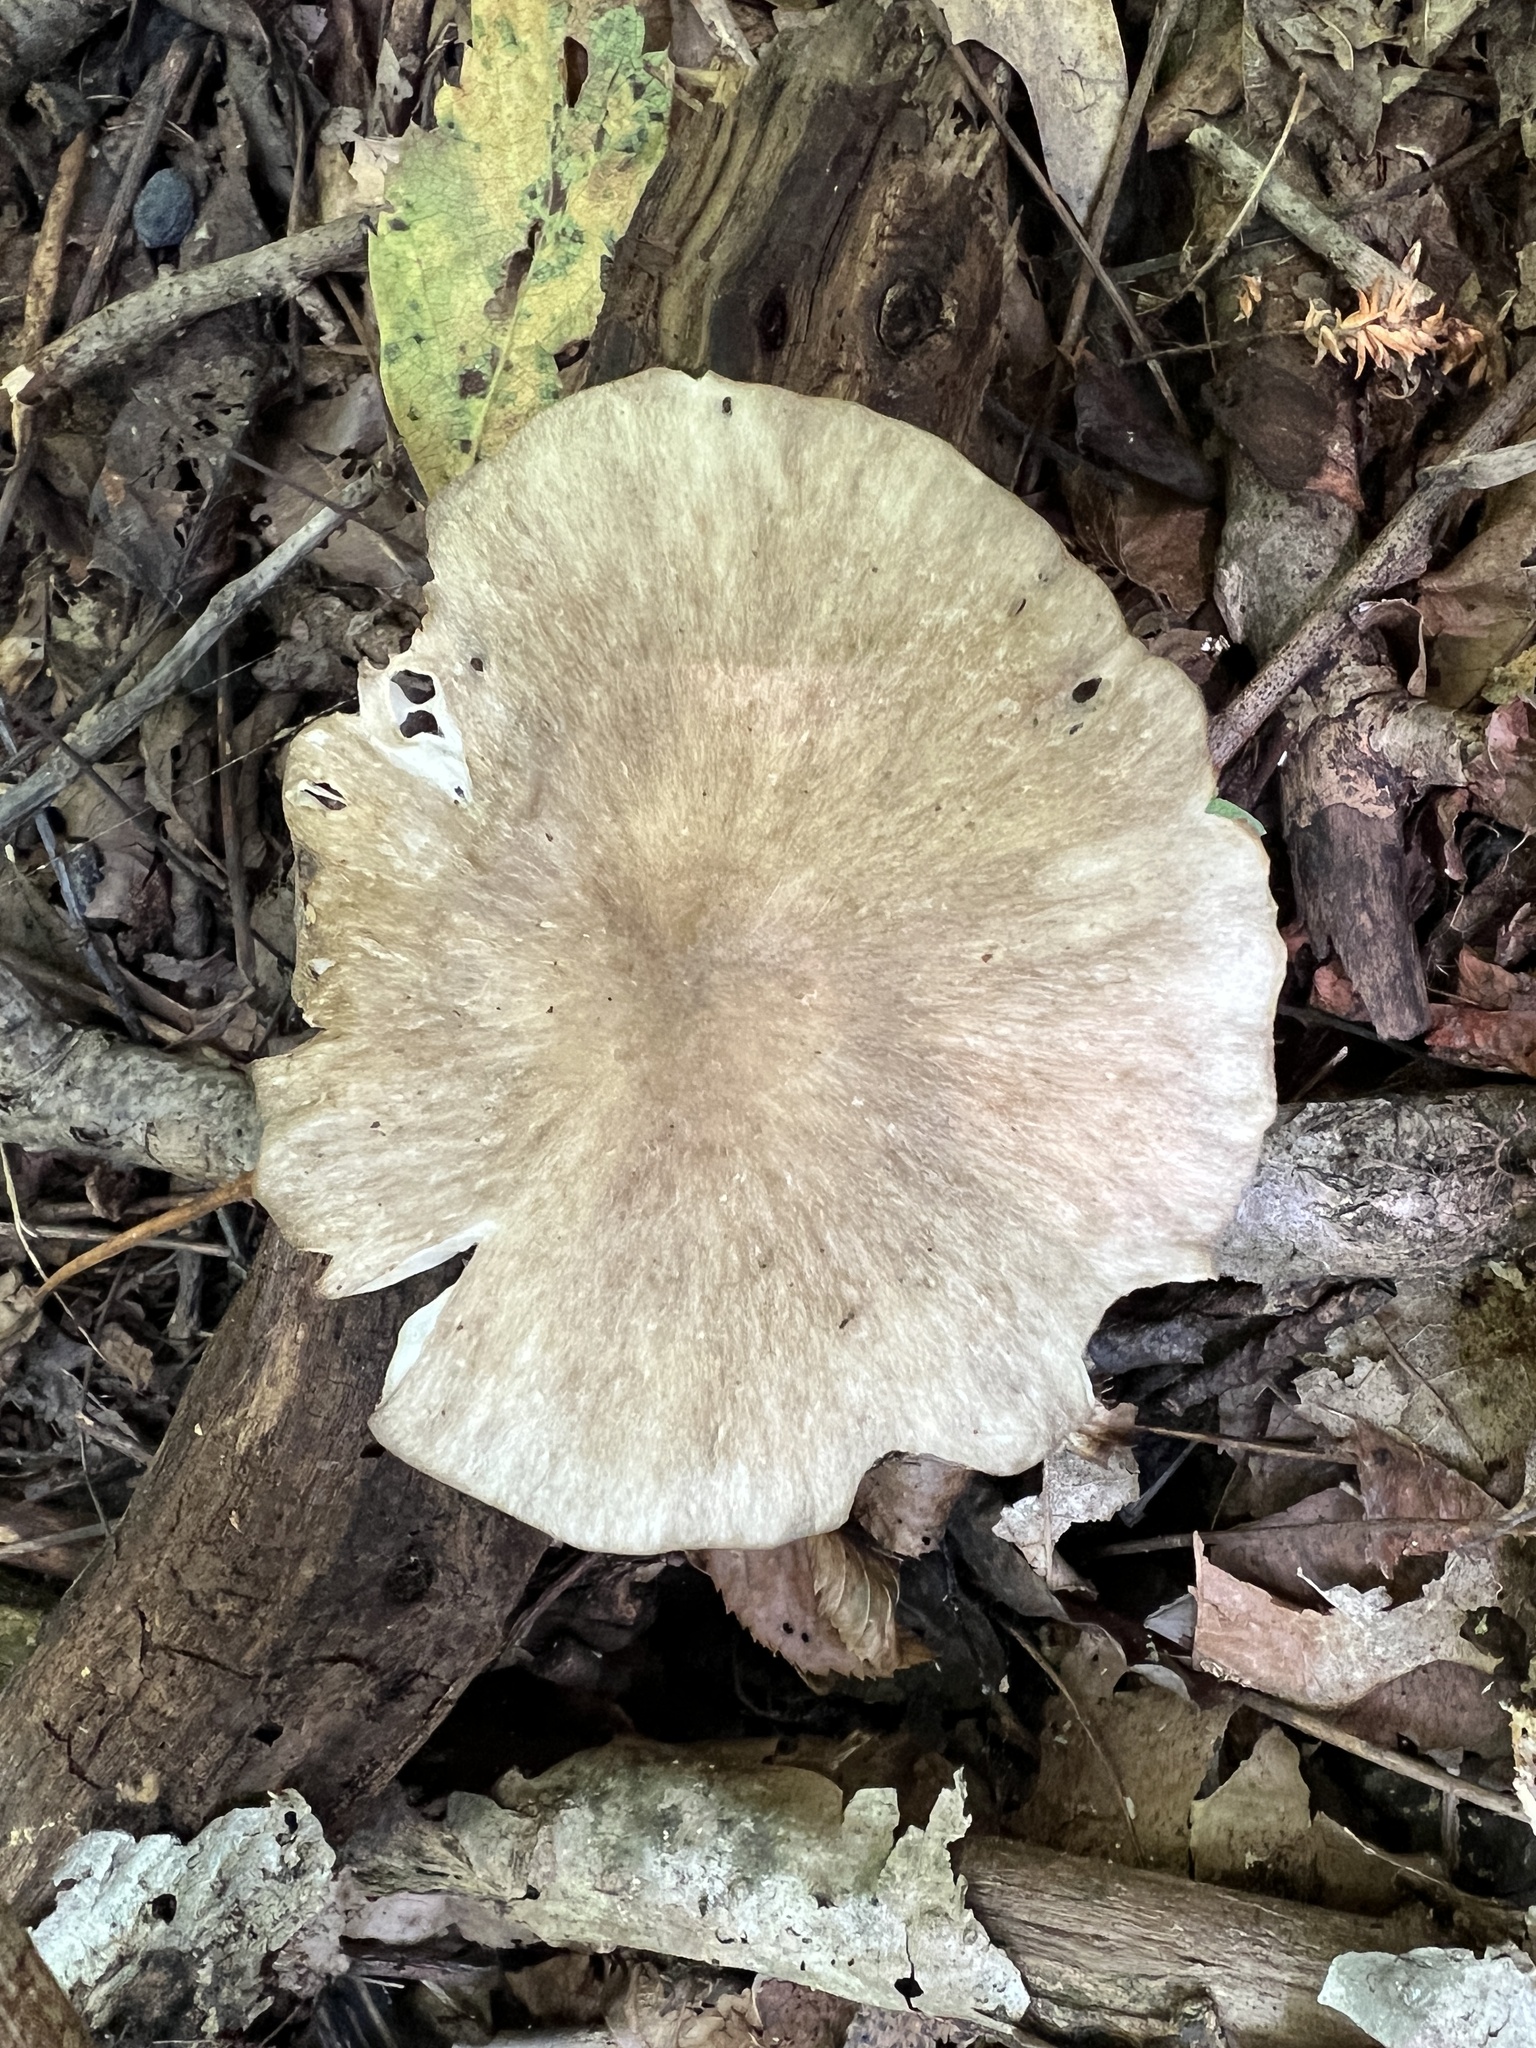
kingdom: Fungi
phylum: Basidiomycota
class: Agaricomycetes
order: Agaricales
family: Tricholomataceae
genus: Megacollybia
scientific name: Megacollybia rodmanii
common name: Eastern american platterful mushroom
